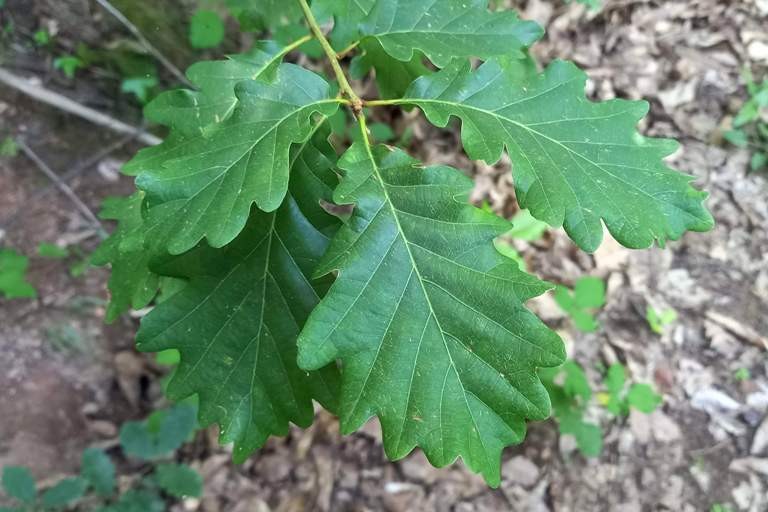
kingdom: Plantae
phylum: Tracheophyta
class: Magnoliopsida
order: Fagales
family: Fagaceae
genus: Quercus
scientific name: Quercus petraea
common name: Sessile oak
